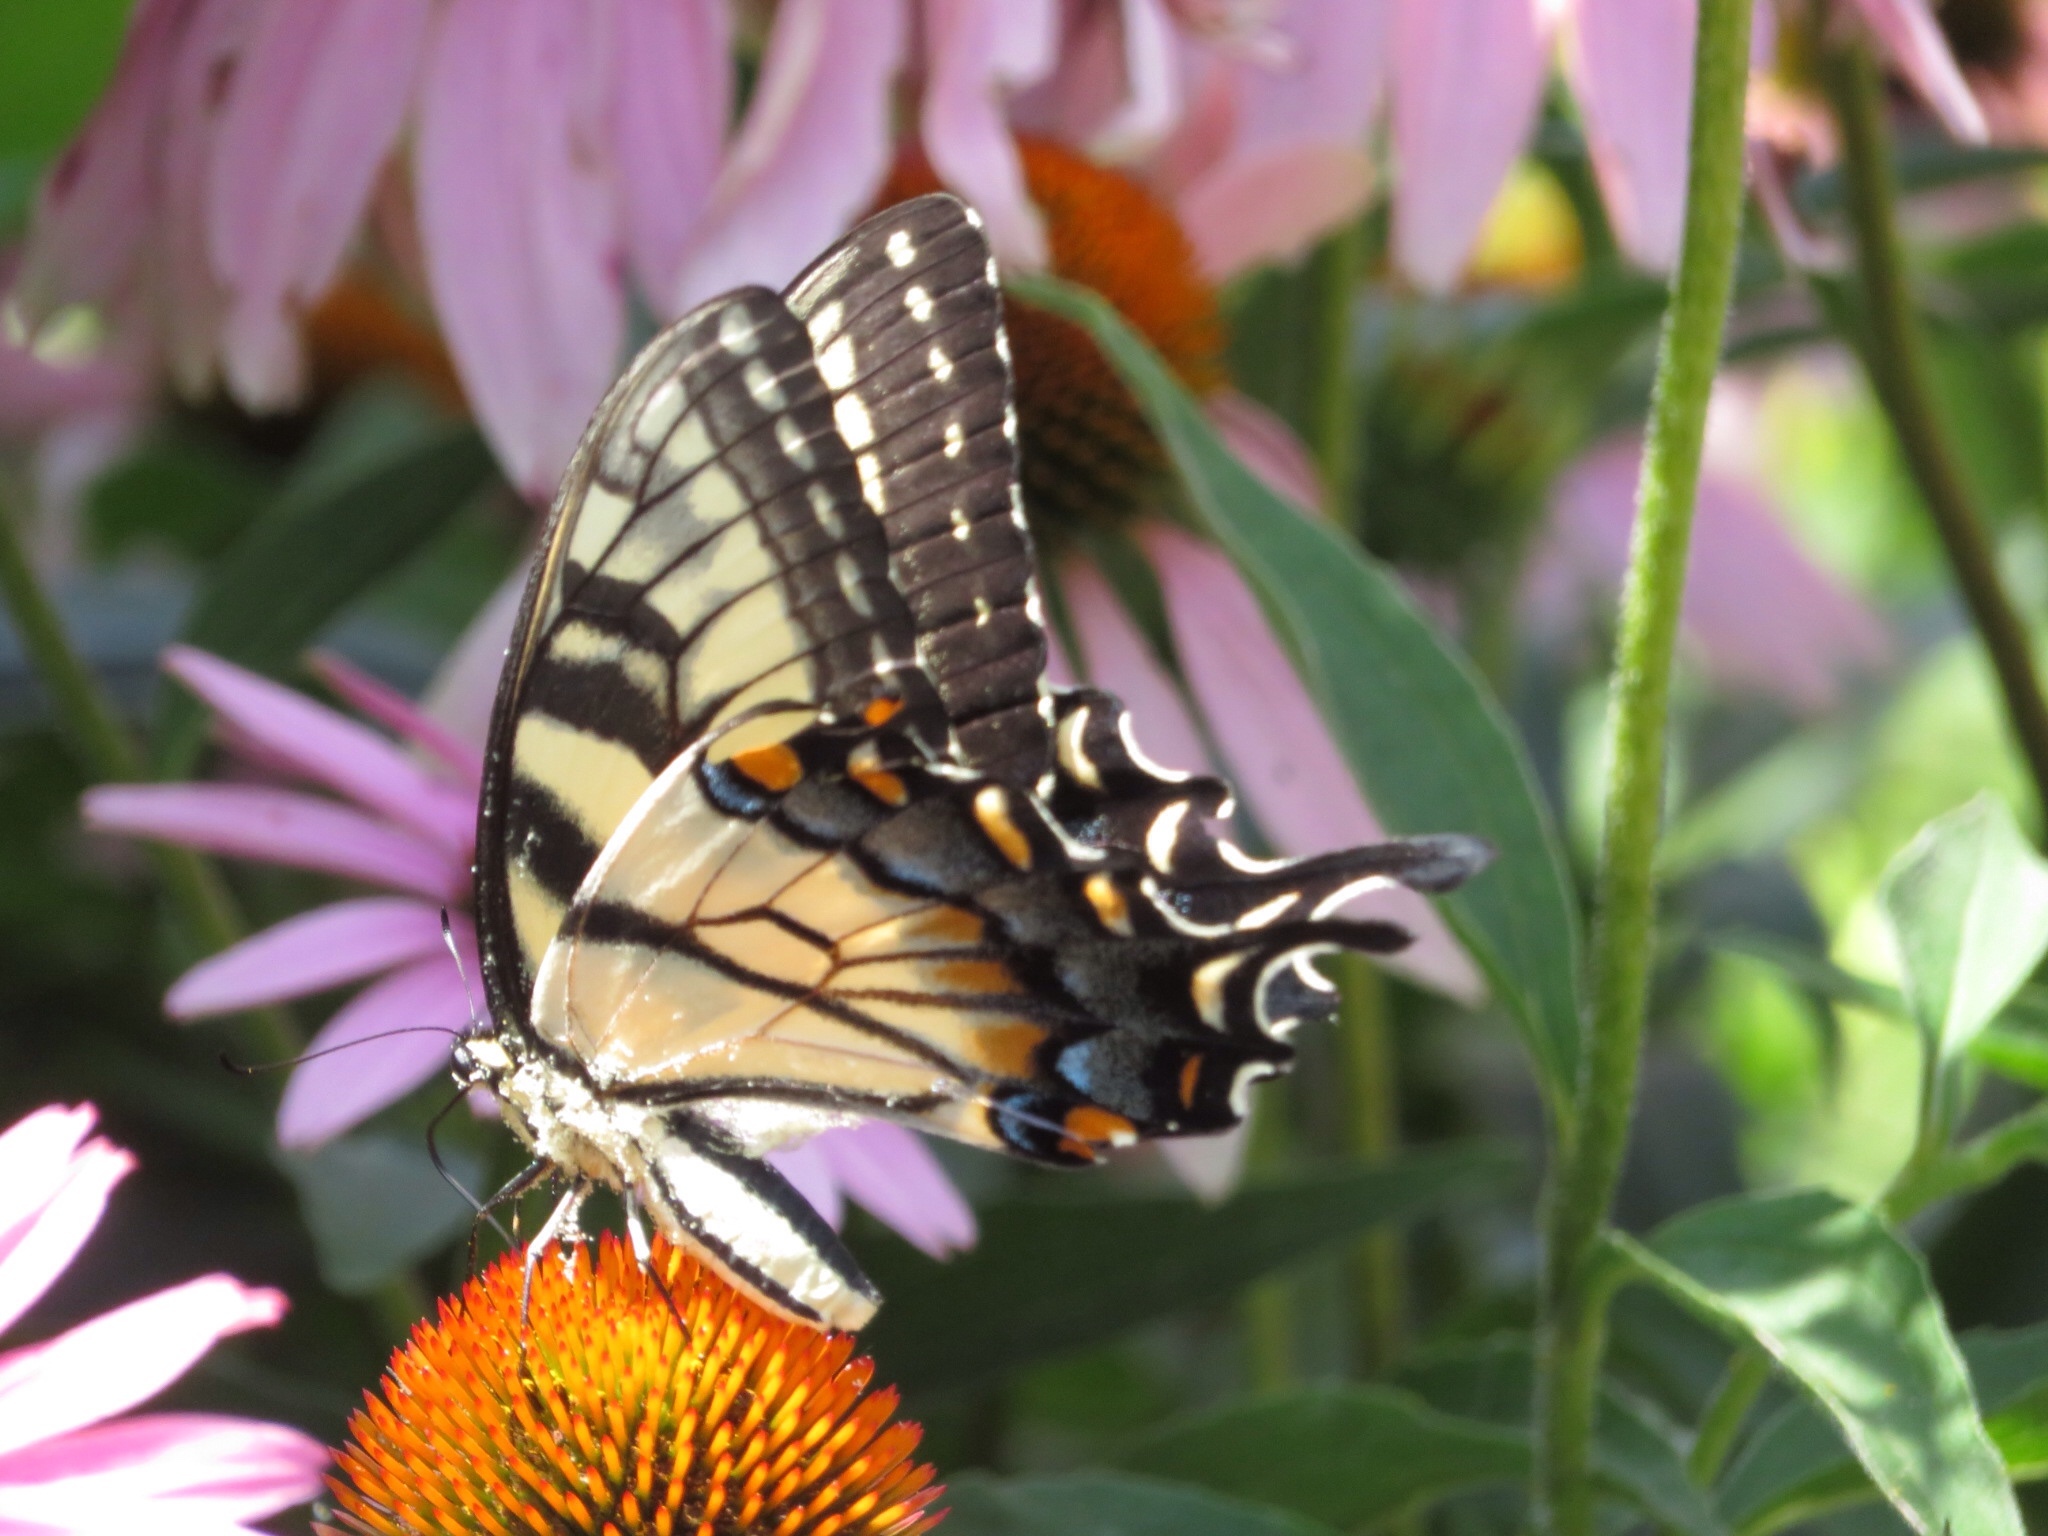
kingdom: Animalia
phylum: Arthropoda
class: Insecta
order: Lepidoptera
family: Papilionidae
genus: Papilio
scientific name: Papilio glaucus
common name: Tiger swallowtail
